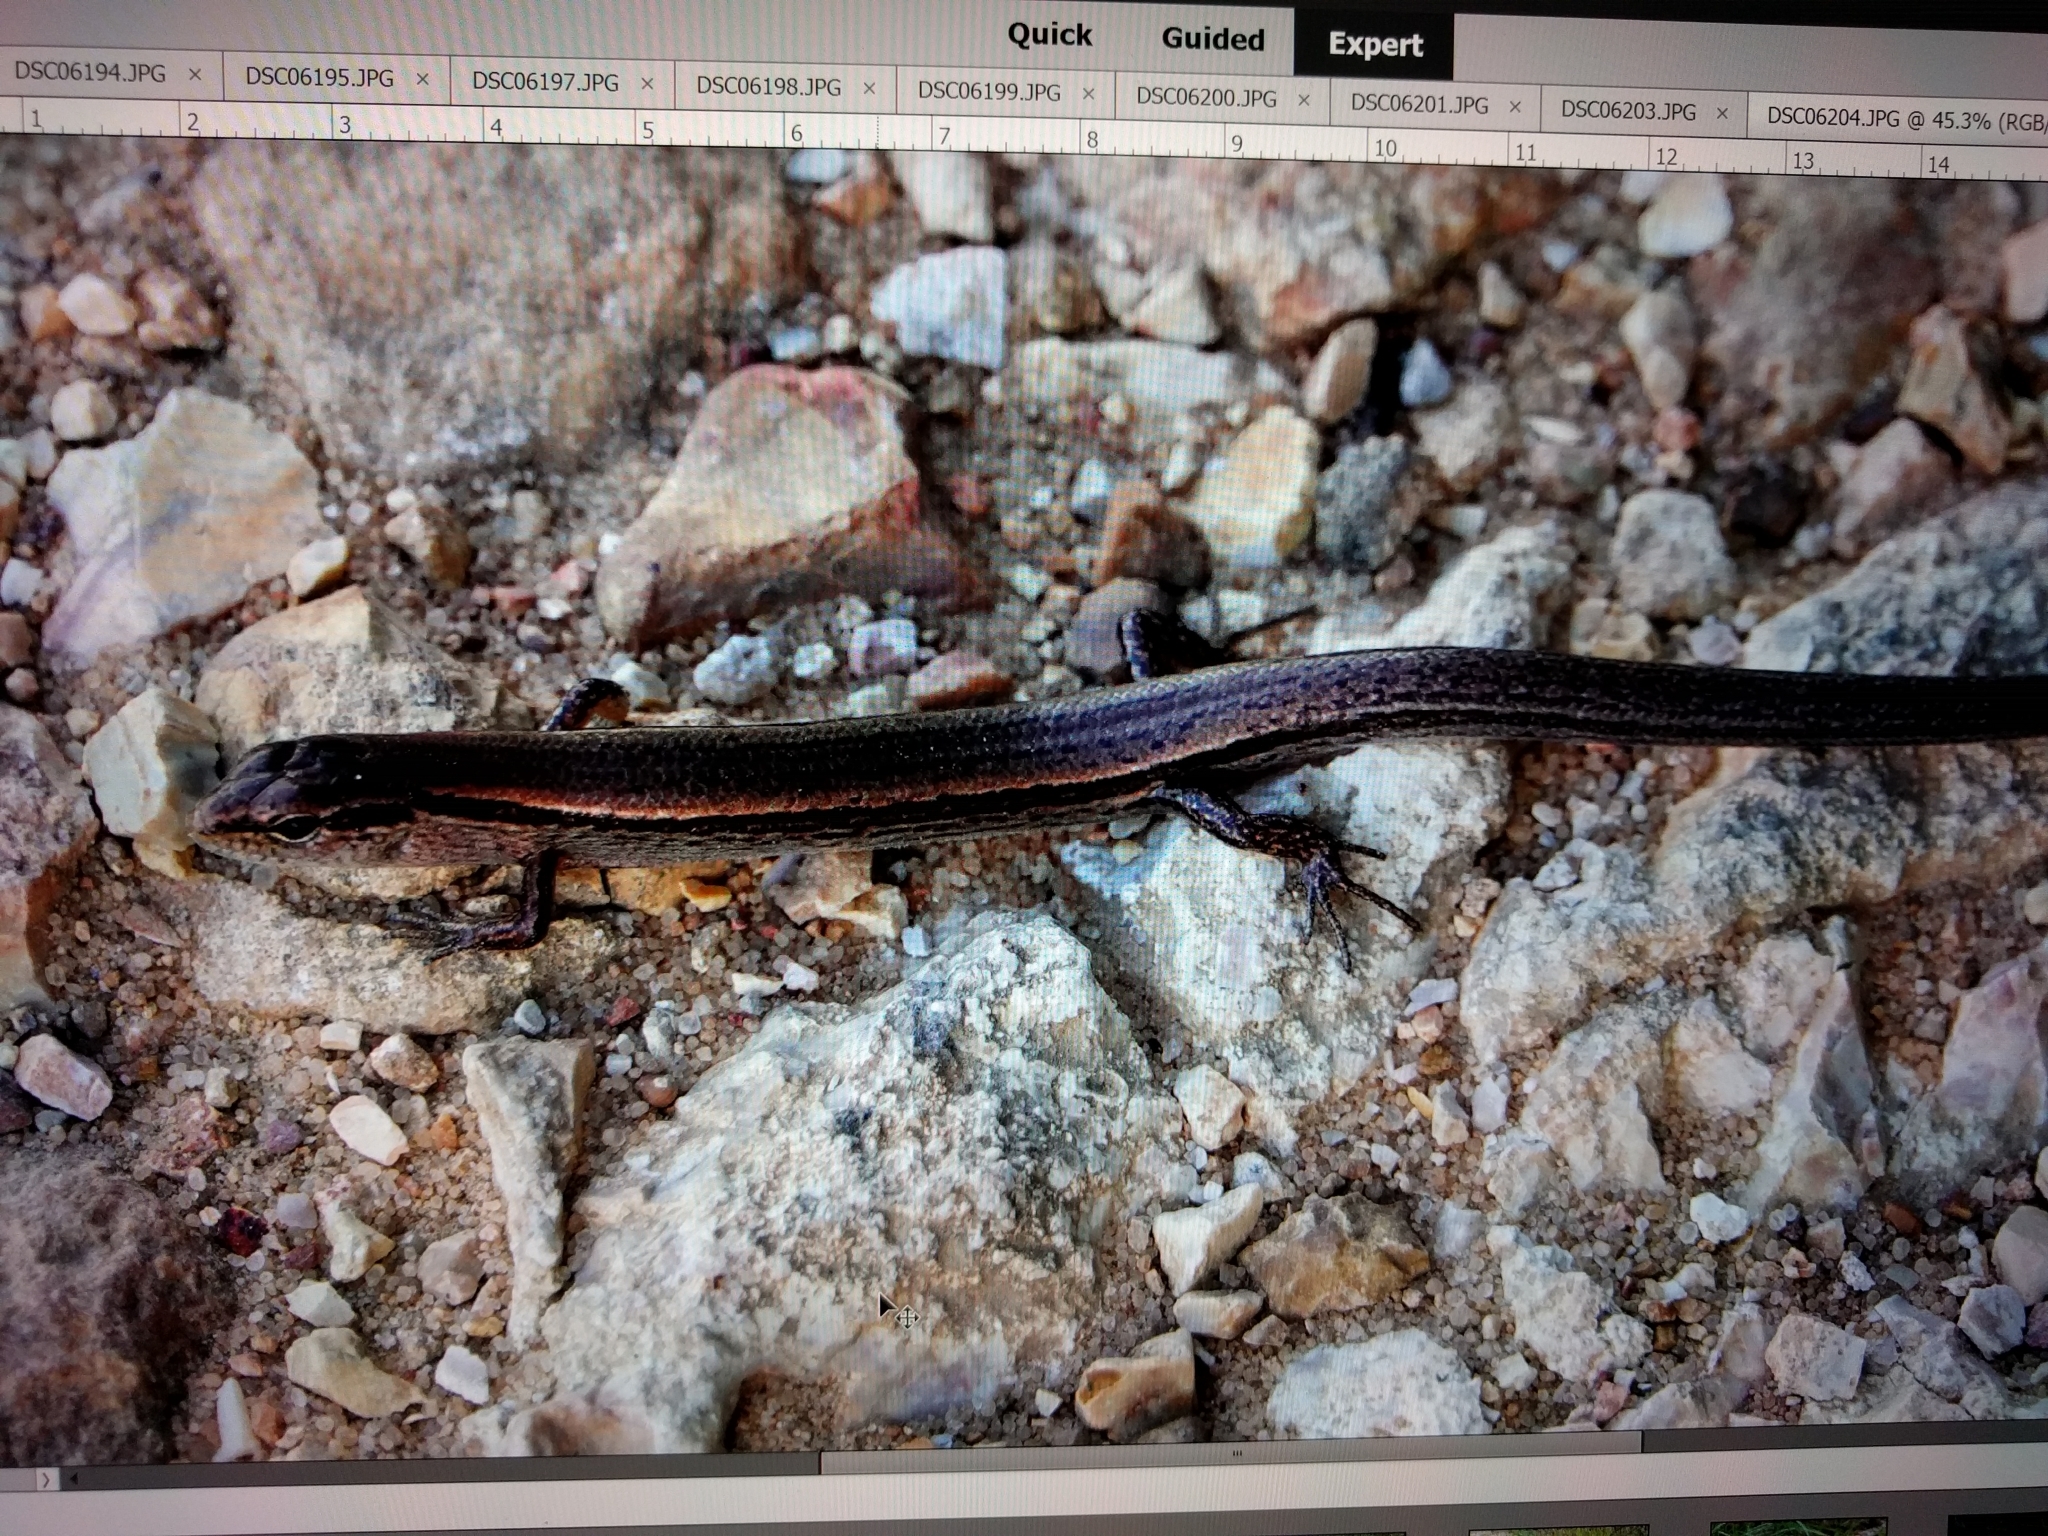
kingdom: Animalia
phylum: Chordata
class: Squamata
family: Scincidae
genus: Scincella
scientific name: Scincella lateralis
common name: Ground skink
